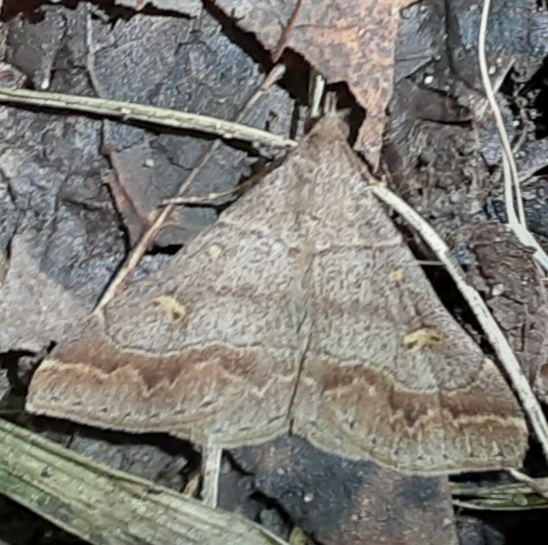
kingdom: Animalia
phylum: Arthropoda
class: Insecta
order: Lepidoptera
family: Erebidae
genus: Renia
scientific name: Renia flavipunctalis
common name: Yellow-spotted renia moth
